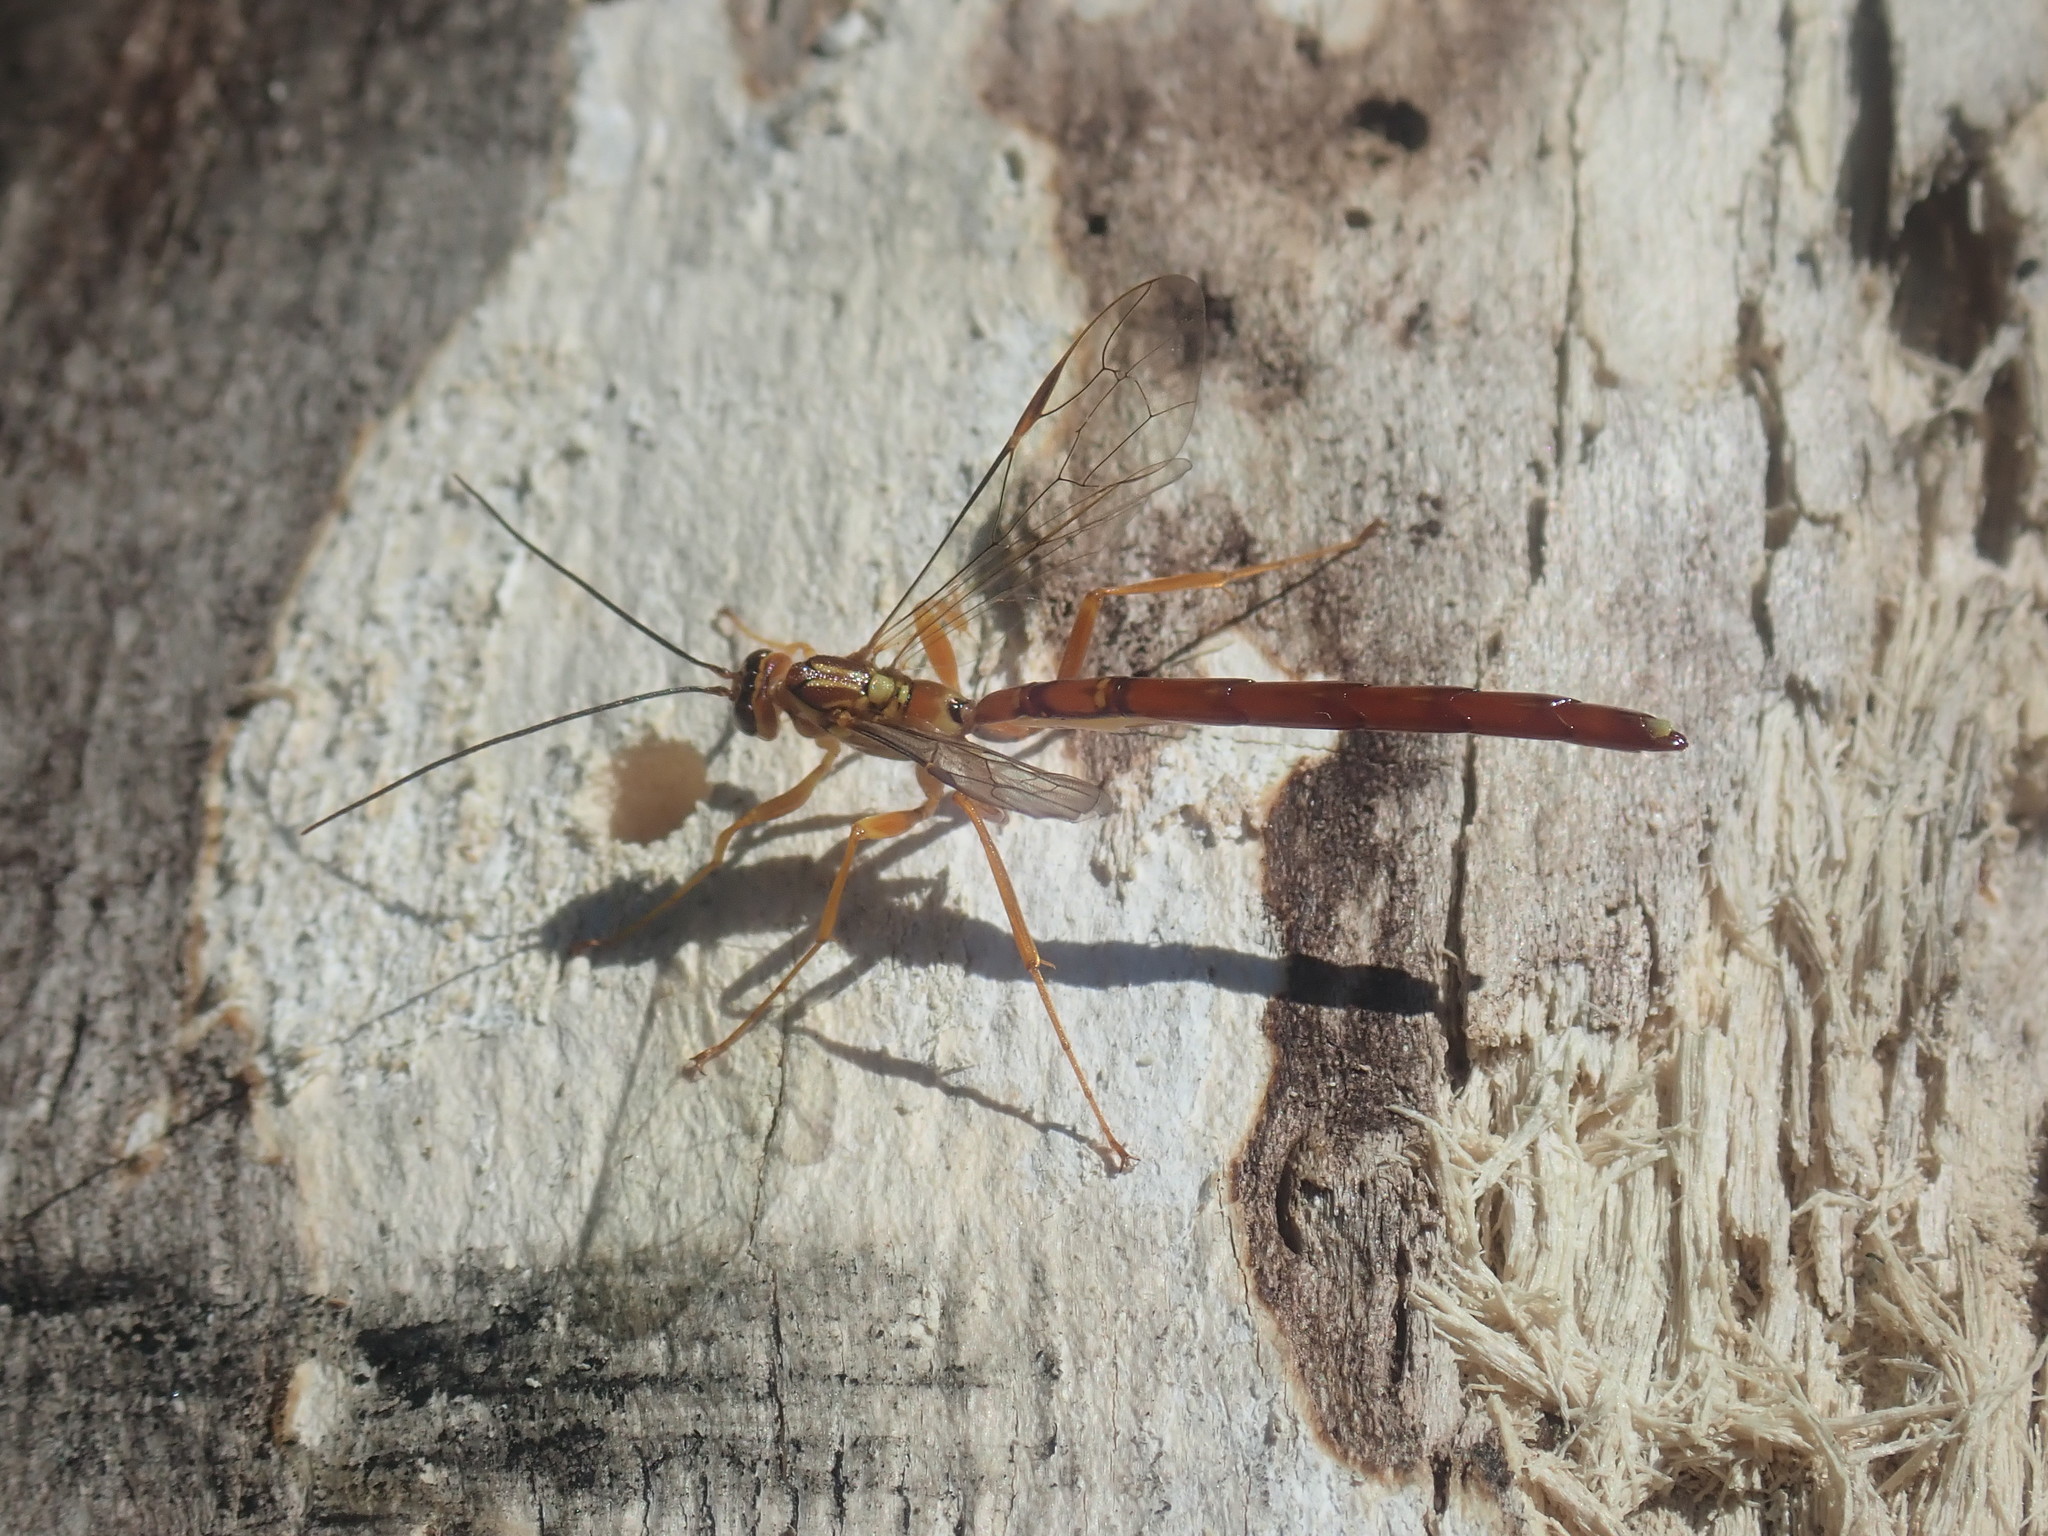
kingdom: Animalia
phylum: Arthropoda
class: Insecta
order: Hymenoptera
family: Ichneumonidae
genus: Megarhyssa
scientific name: Megarhyssa greenei
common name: Greene's giant ichneumonid wasp
